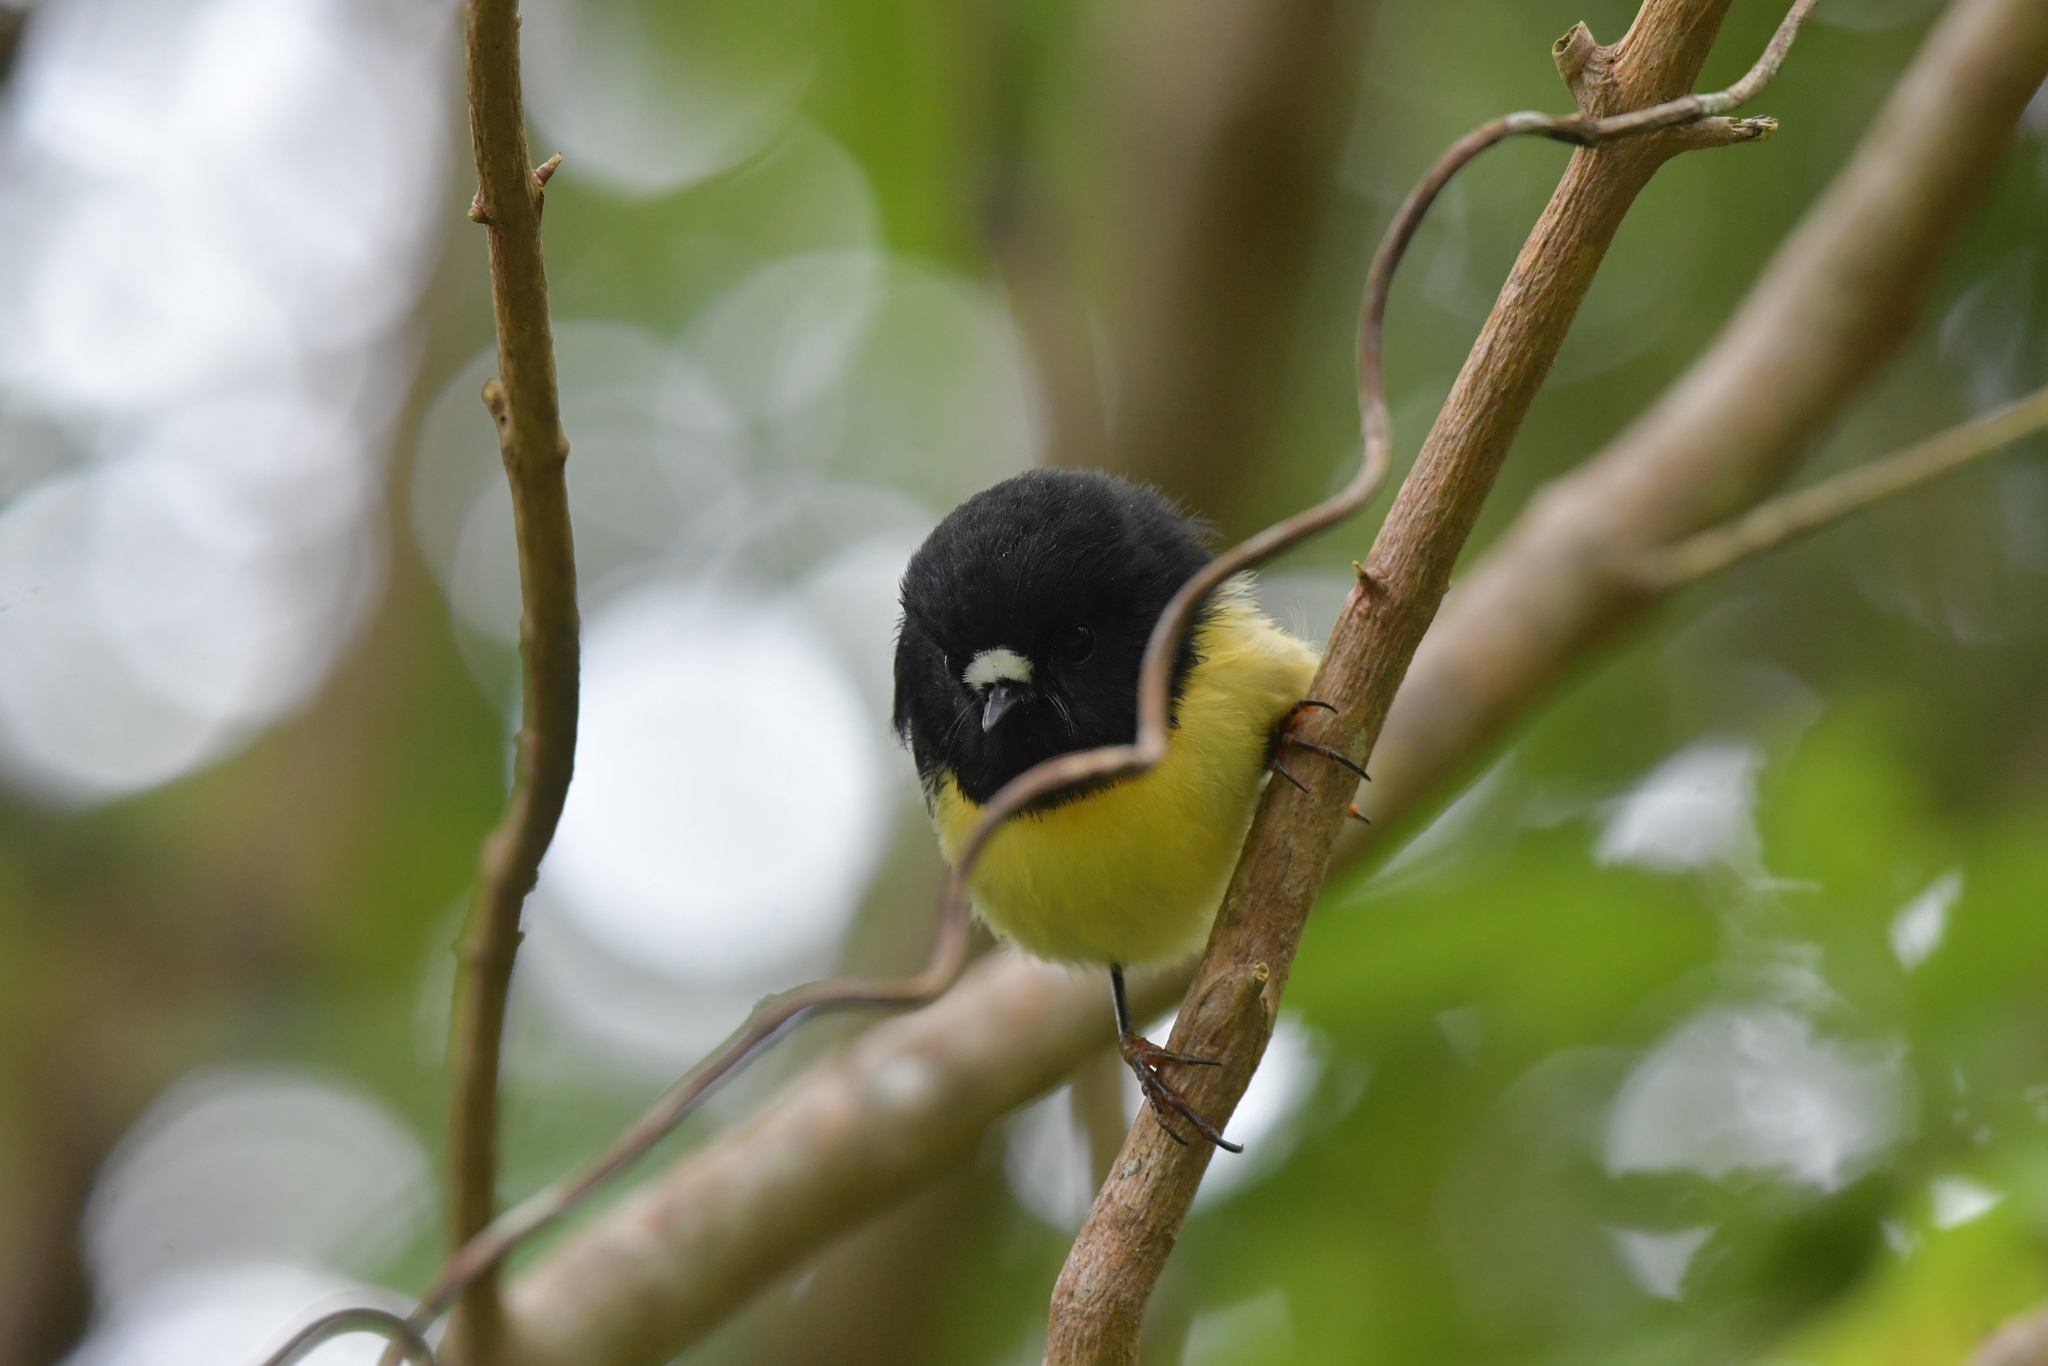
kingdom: Animalia
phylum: Chordata
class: Aves
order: Passeriformes
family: Petroicidae
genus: Petroica
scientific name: Petroica macrocephala
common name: Tomtit
